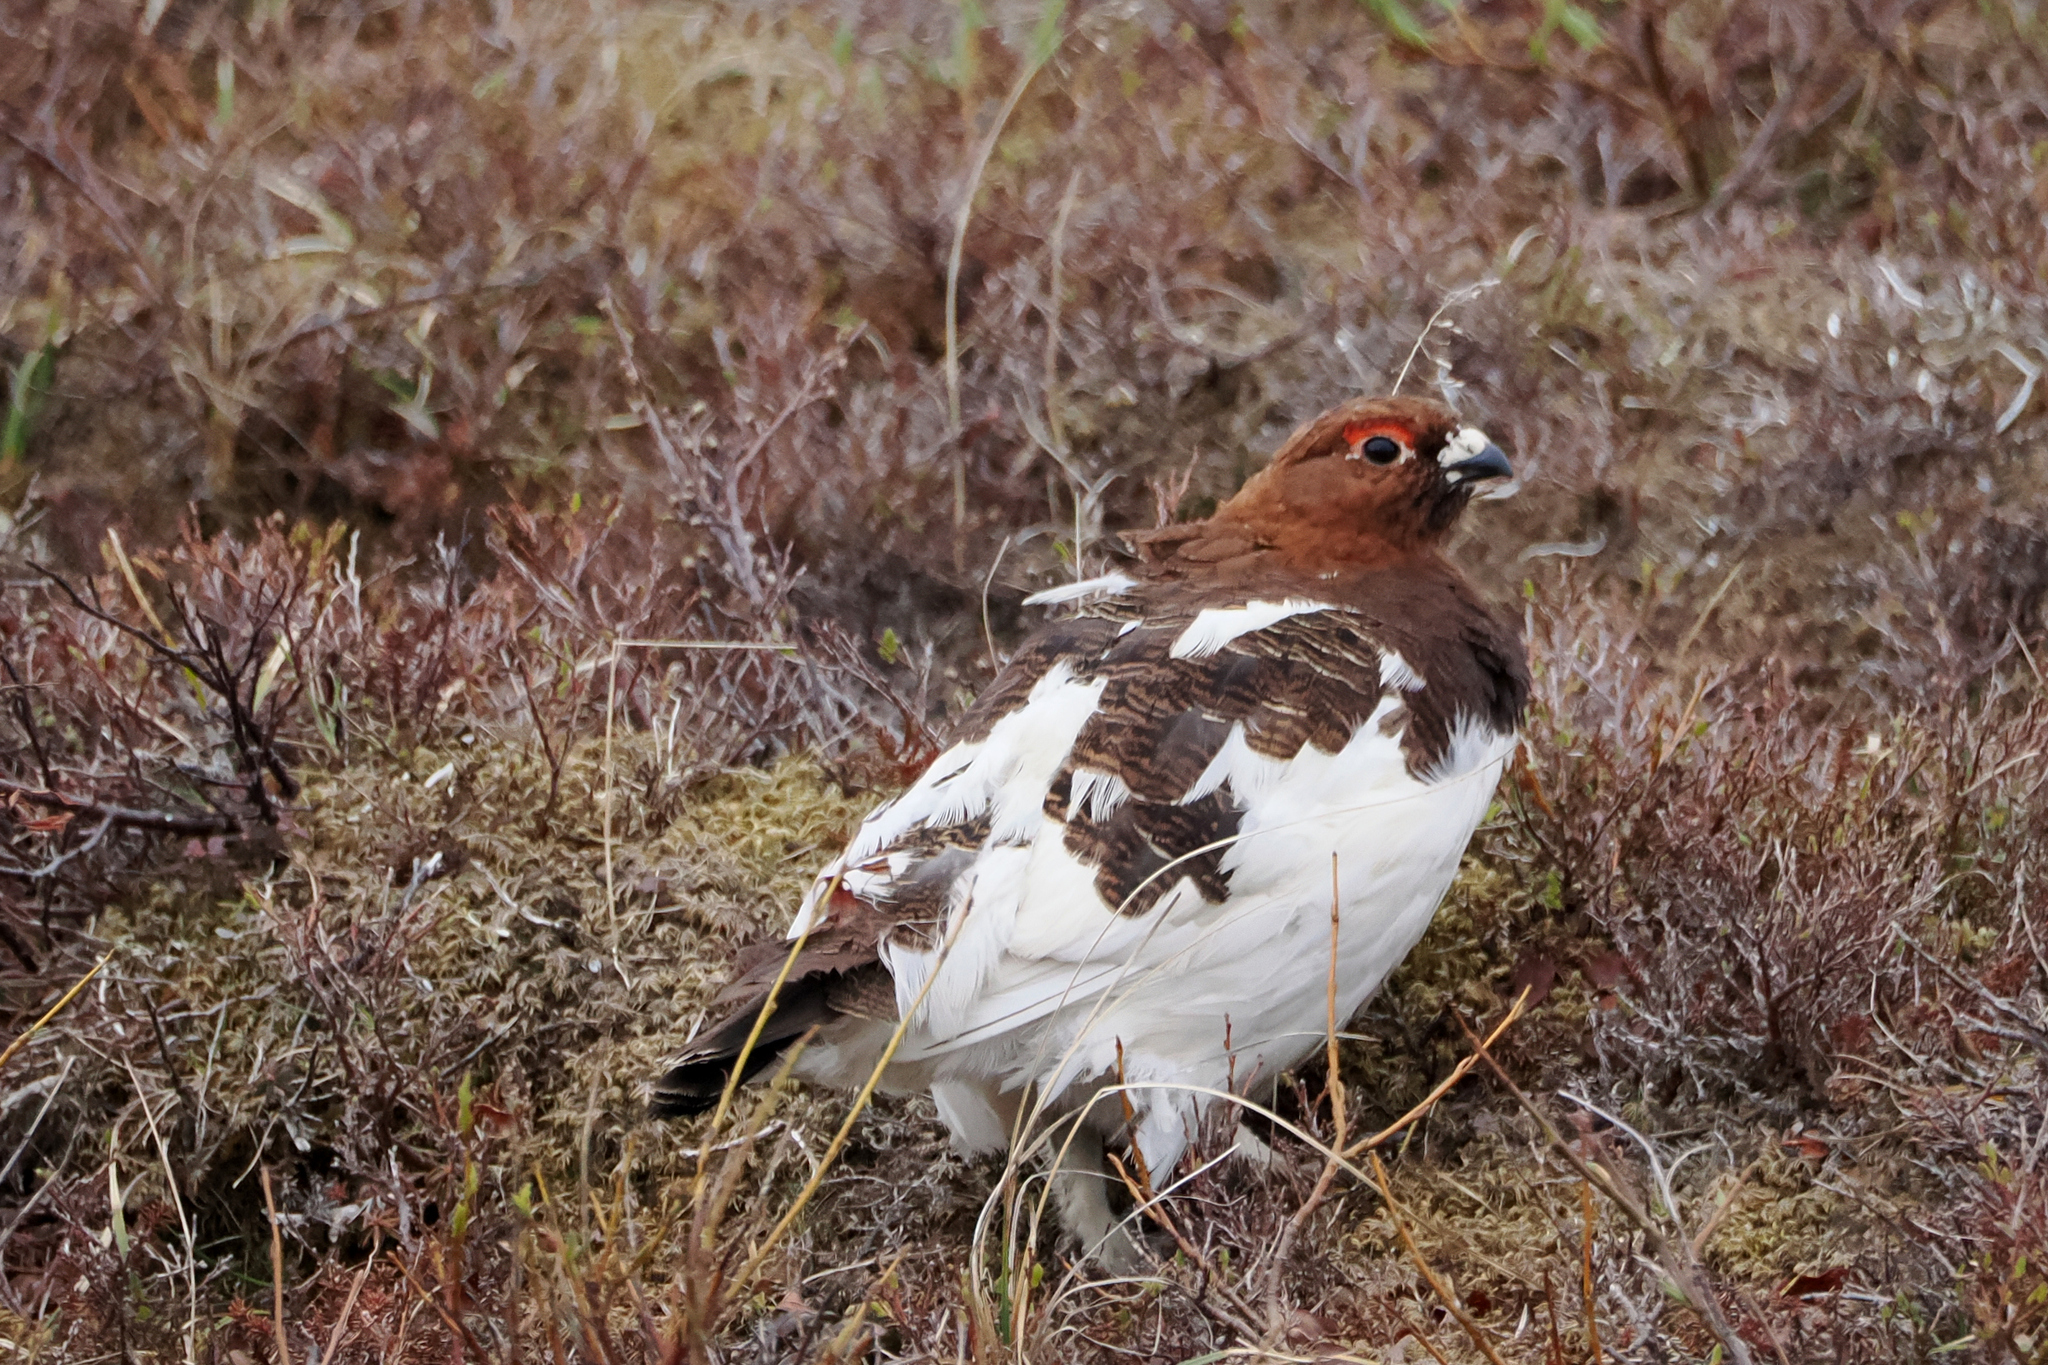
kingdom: Animalia
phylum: Chordata
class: Aves
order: Galliformes
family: Phasianidae
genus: Lagopus
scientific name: Lagopus lagopus
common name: Willow ptarmigan
